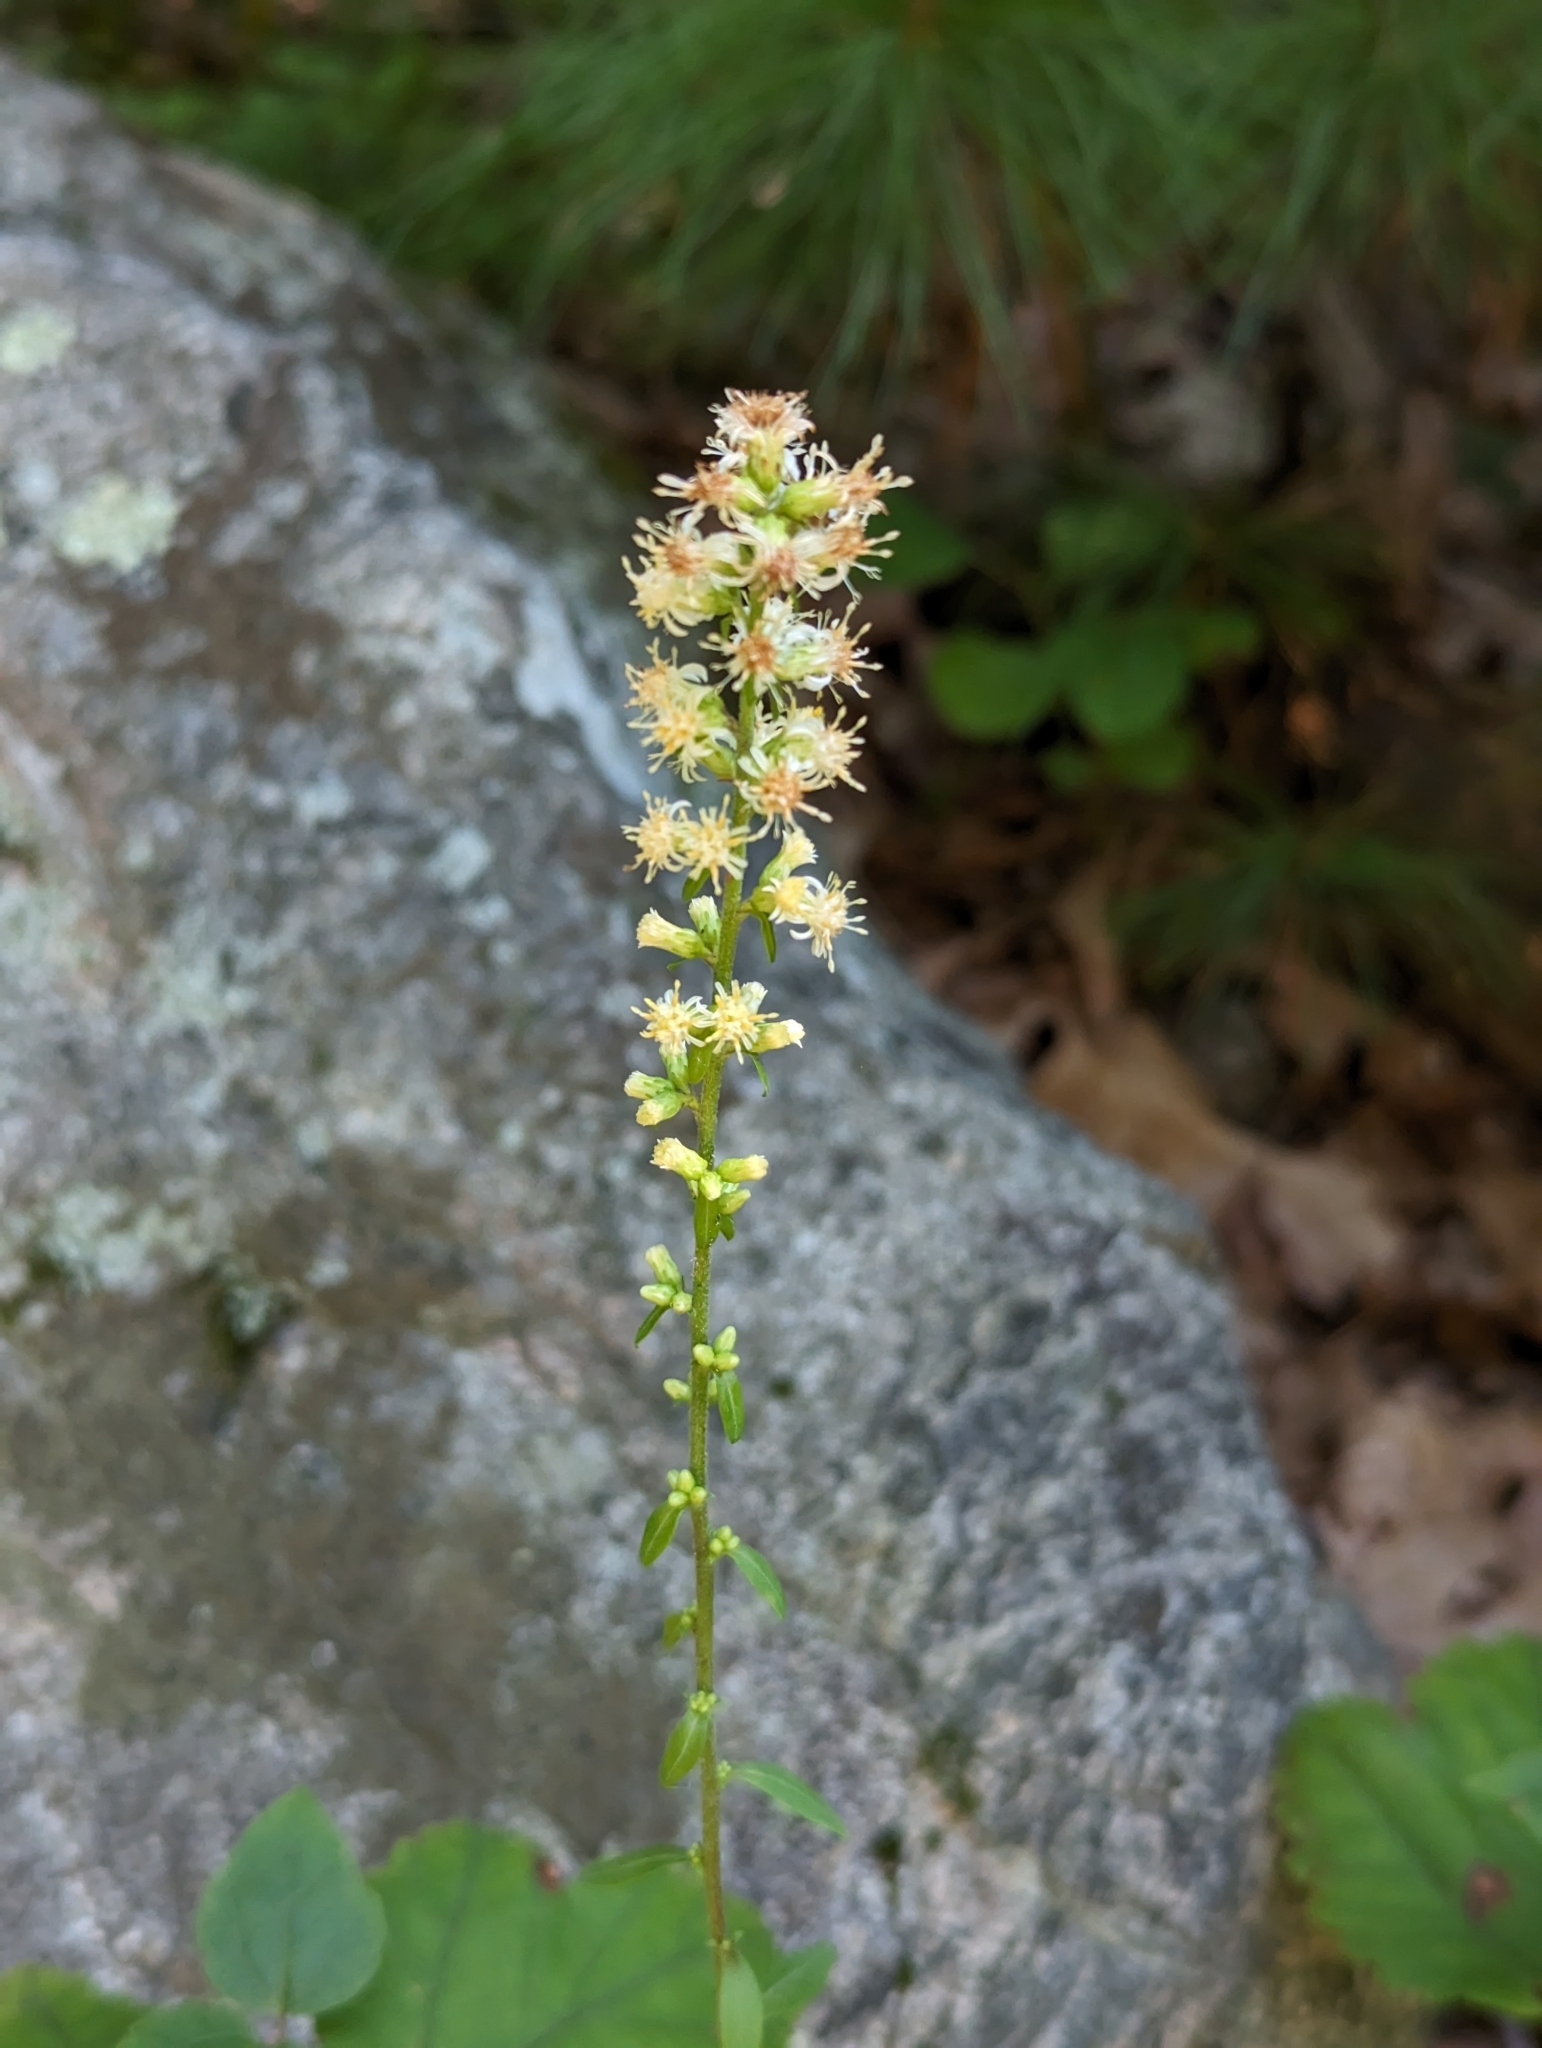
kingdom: Plantae
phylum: Tracheophyta
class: Magnoliopsida
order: Asterales
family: Asteraceae
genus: Solidago
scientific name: Solidago bicolor
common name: Silverrod
